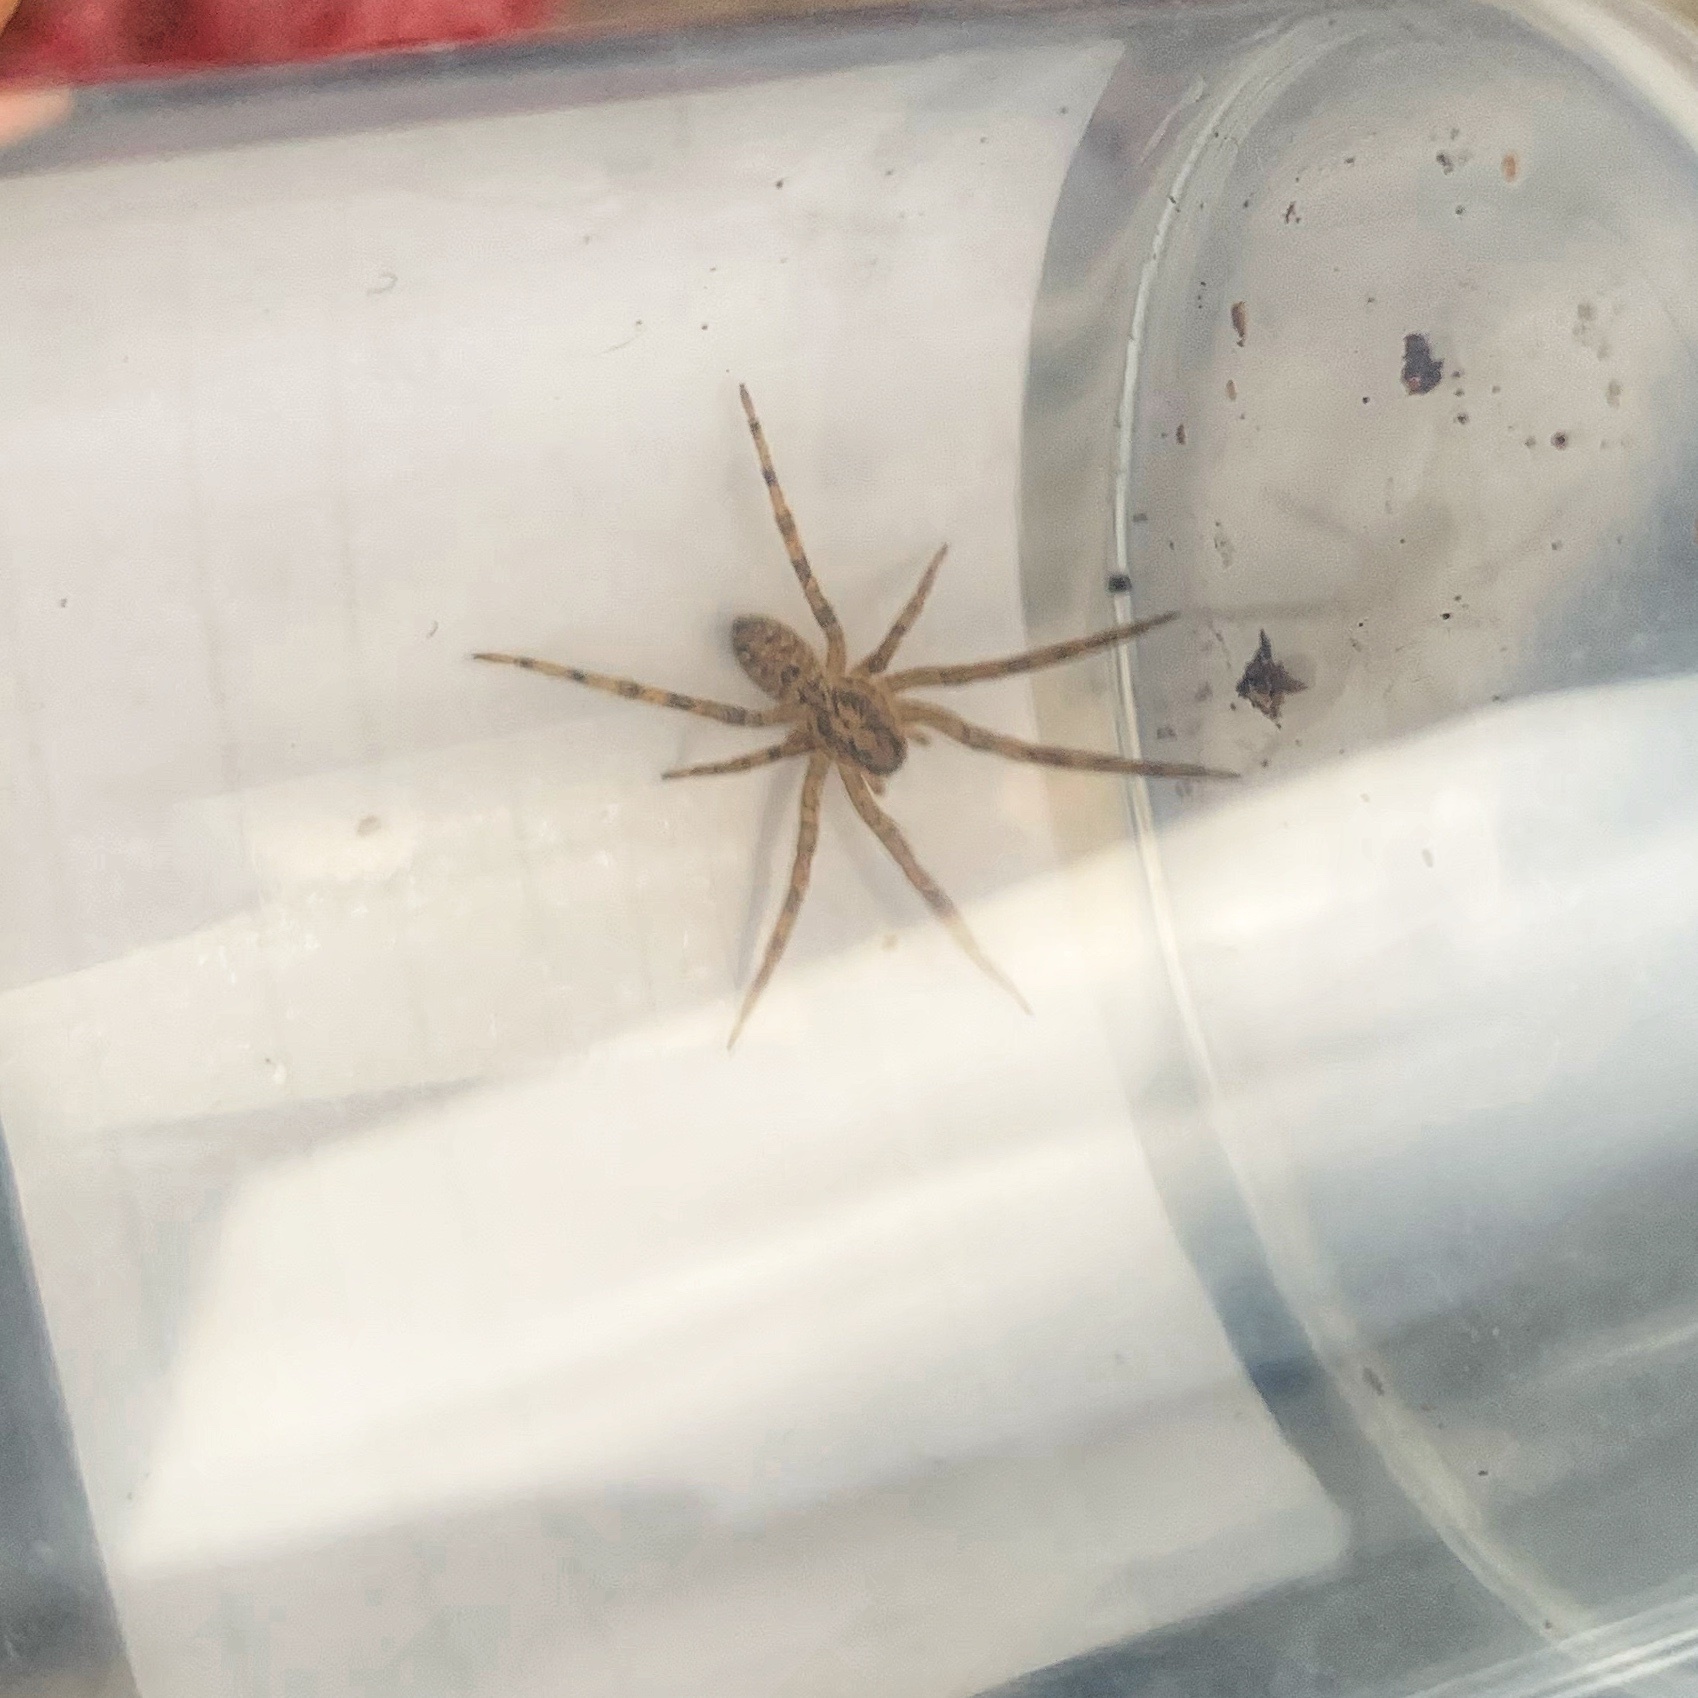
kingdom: Animalia
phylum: Arthropoda
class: Arachnida
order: Araneae
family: Zoropsidae
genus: Zoropsis
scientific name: Zoropsis spinimana
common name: Zoropsid spider
